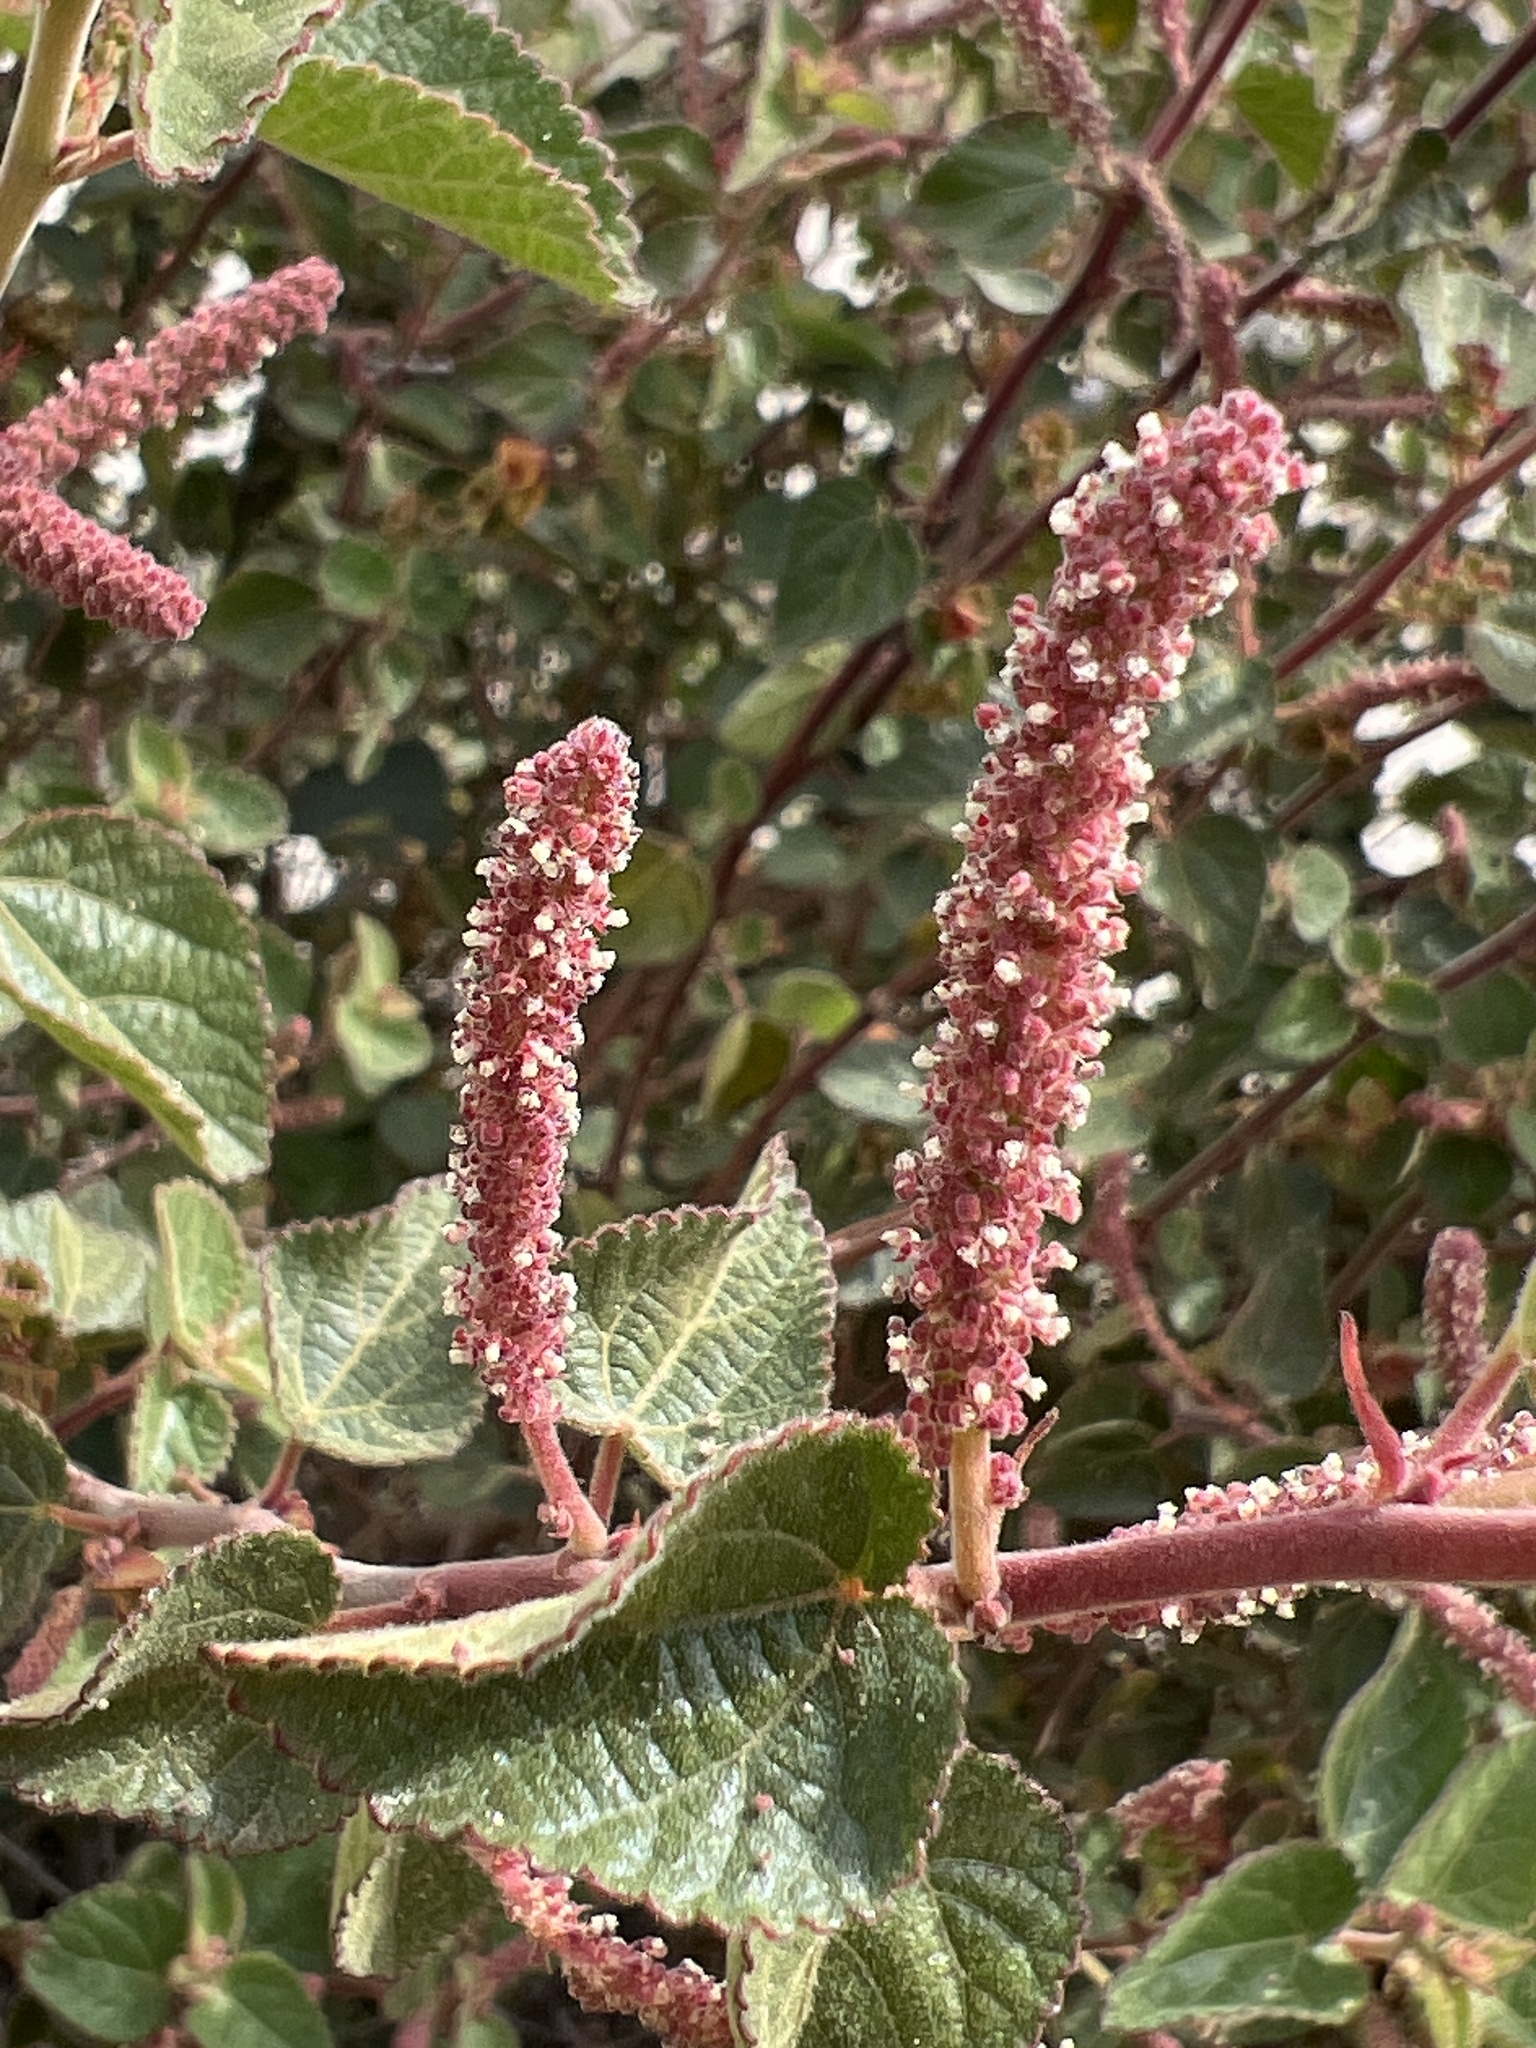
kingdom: Plantae
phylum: Tracheophyta
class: Magnoliopsida
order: Malpighiales
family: Euphorbiaceae
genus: Acalypha
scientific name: Acalypha californica
